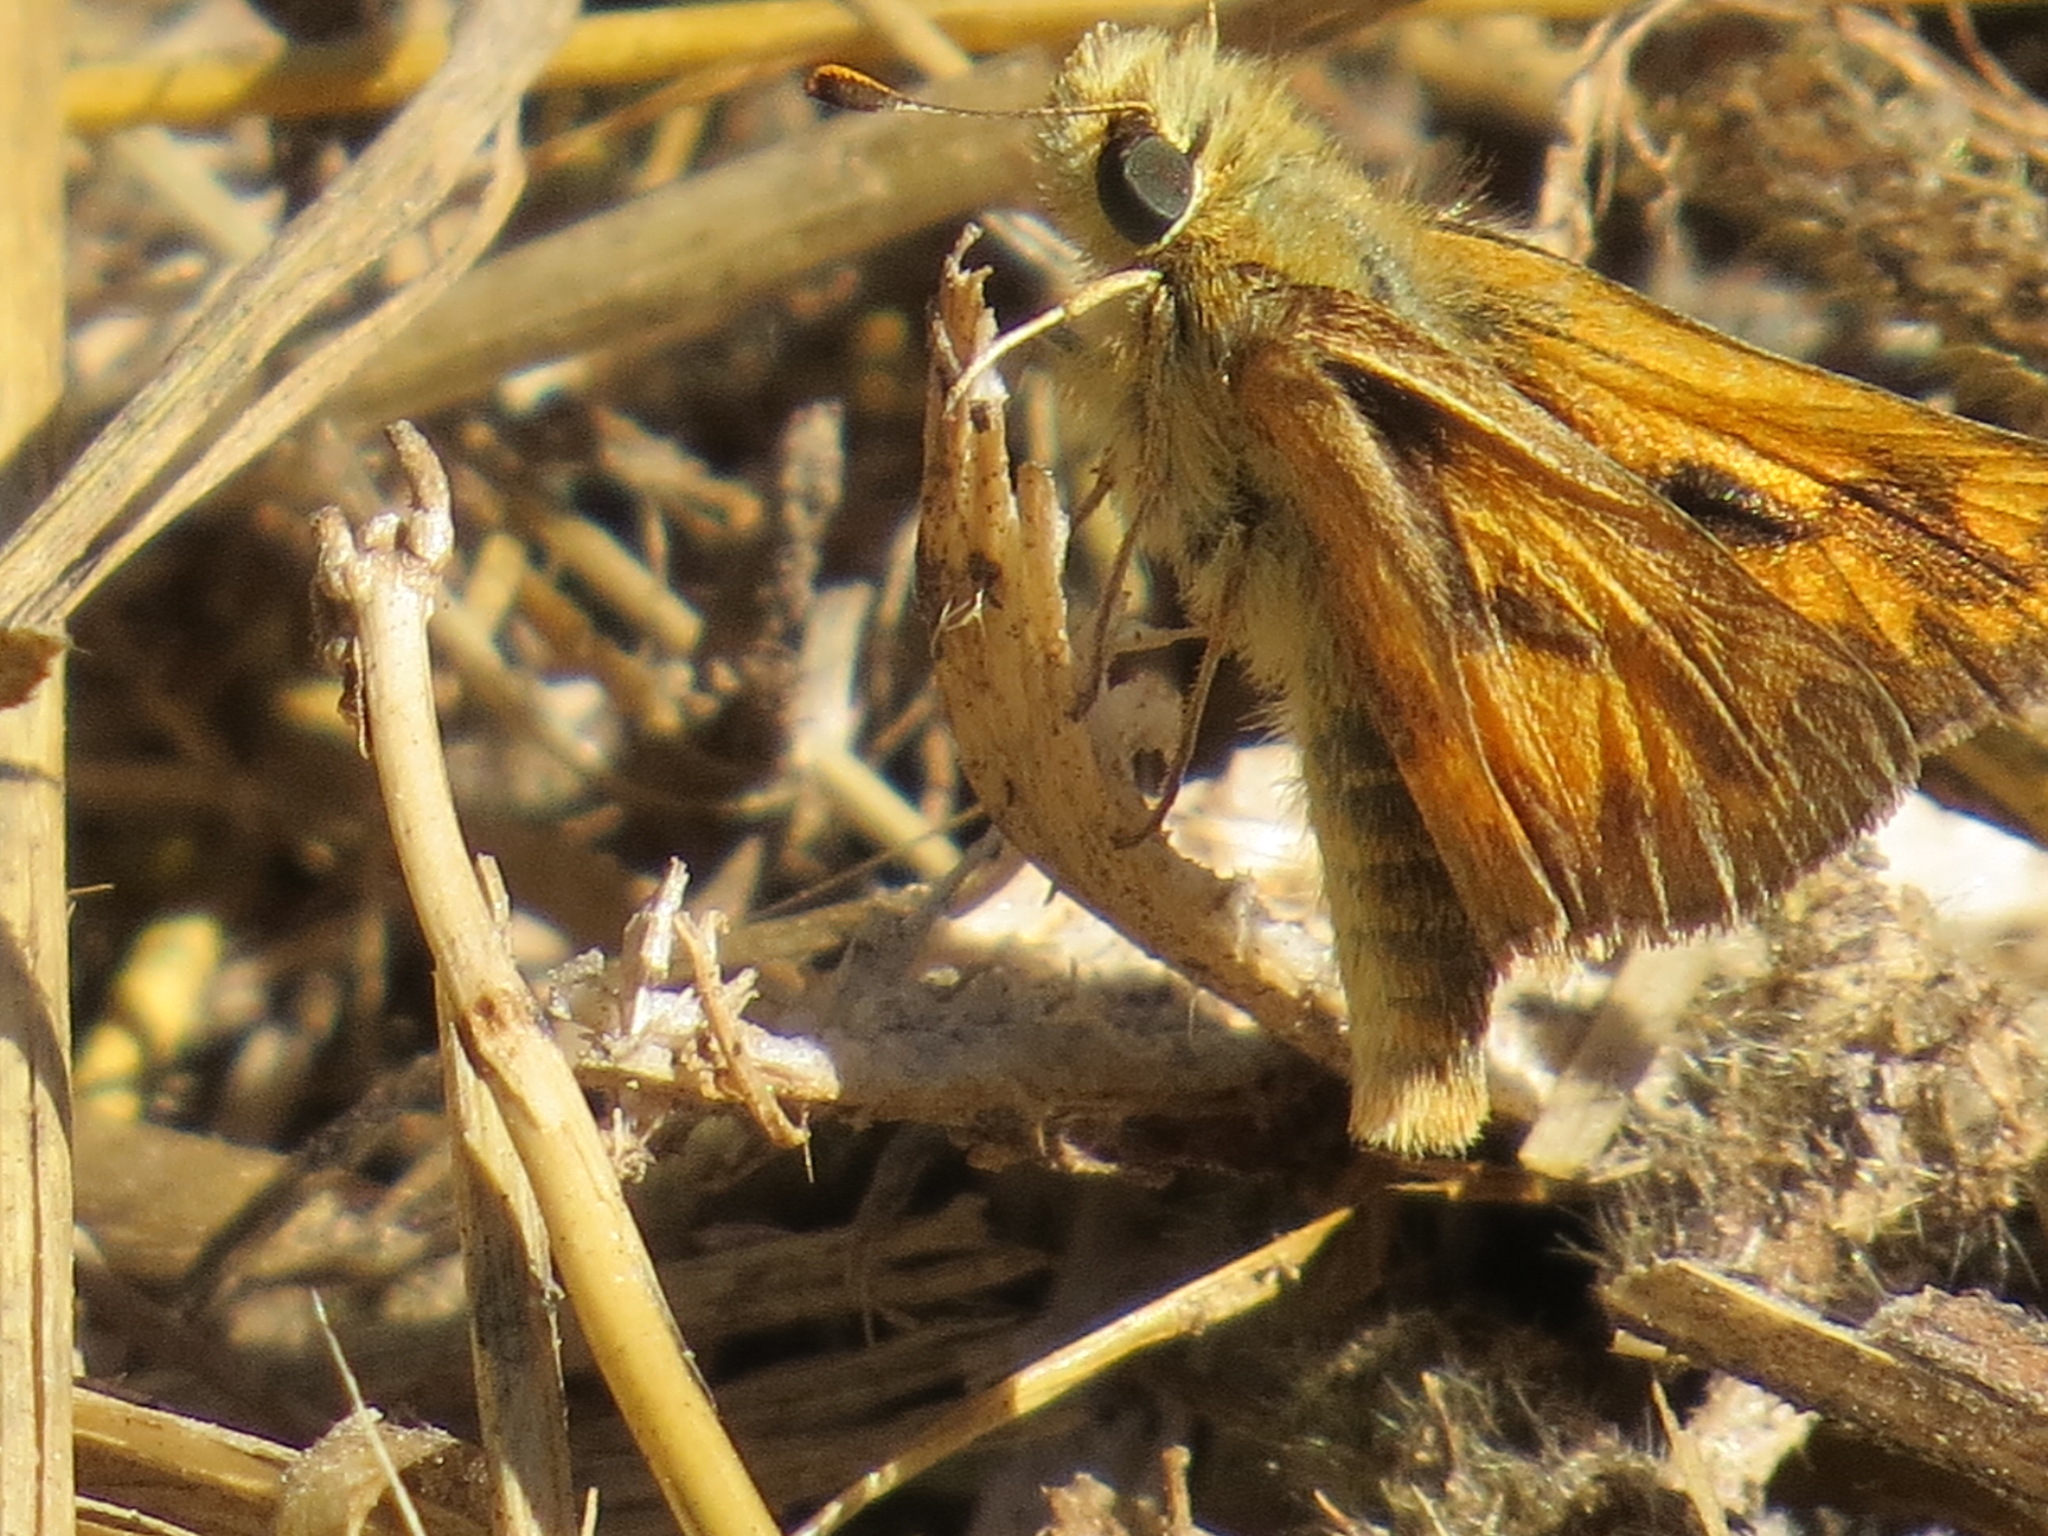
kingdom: Animalia
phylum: Arthropoda
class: Insecta
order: Lepidoptera
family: Hesperiidae
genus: Ochlodes
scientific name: Ochlodes sylvanoides
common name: Woodland skipper
